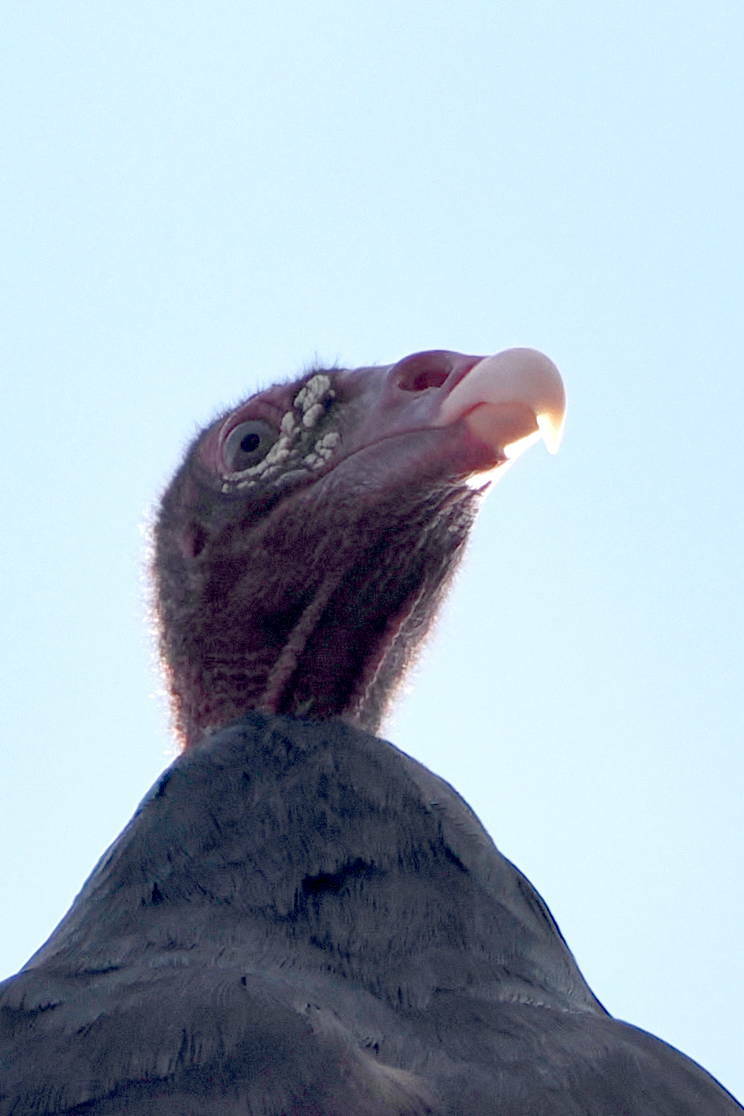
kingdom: Animalia
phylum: Chordata
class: Aves
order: Accipitriformes
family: Cathartidae
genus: Cathartes
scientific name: Cathartes aura
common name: Turkey vulture
